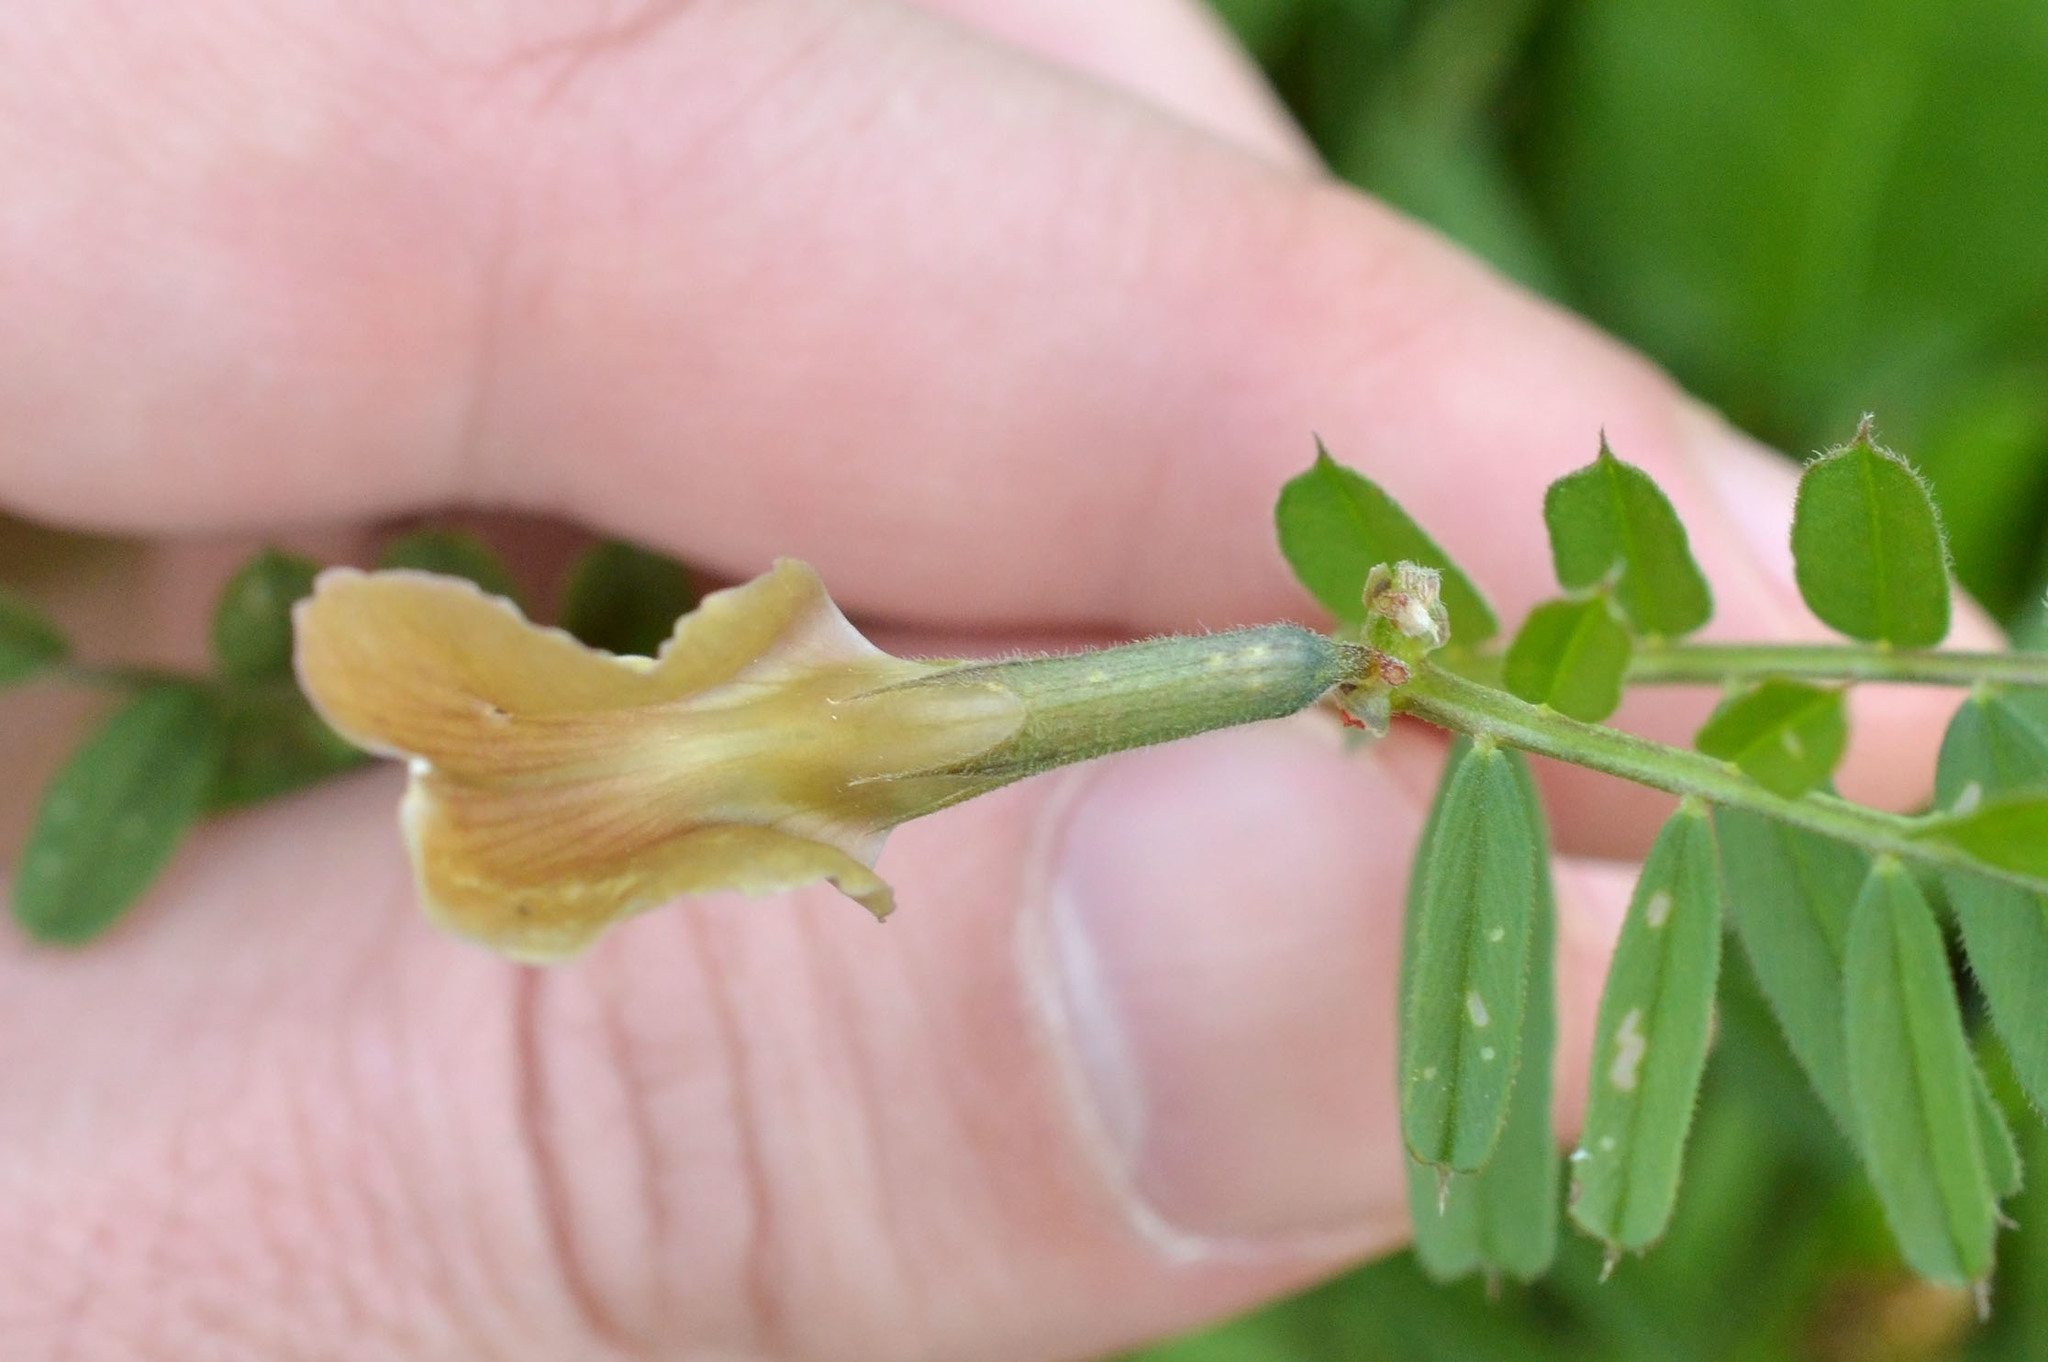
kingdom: Plantae
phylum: Tracheophyta
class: Magnoliopsida
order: Fabales
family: Fabaceae
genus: Vicia
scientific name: Vicia grandiflora
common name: Large yellow vetch
